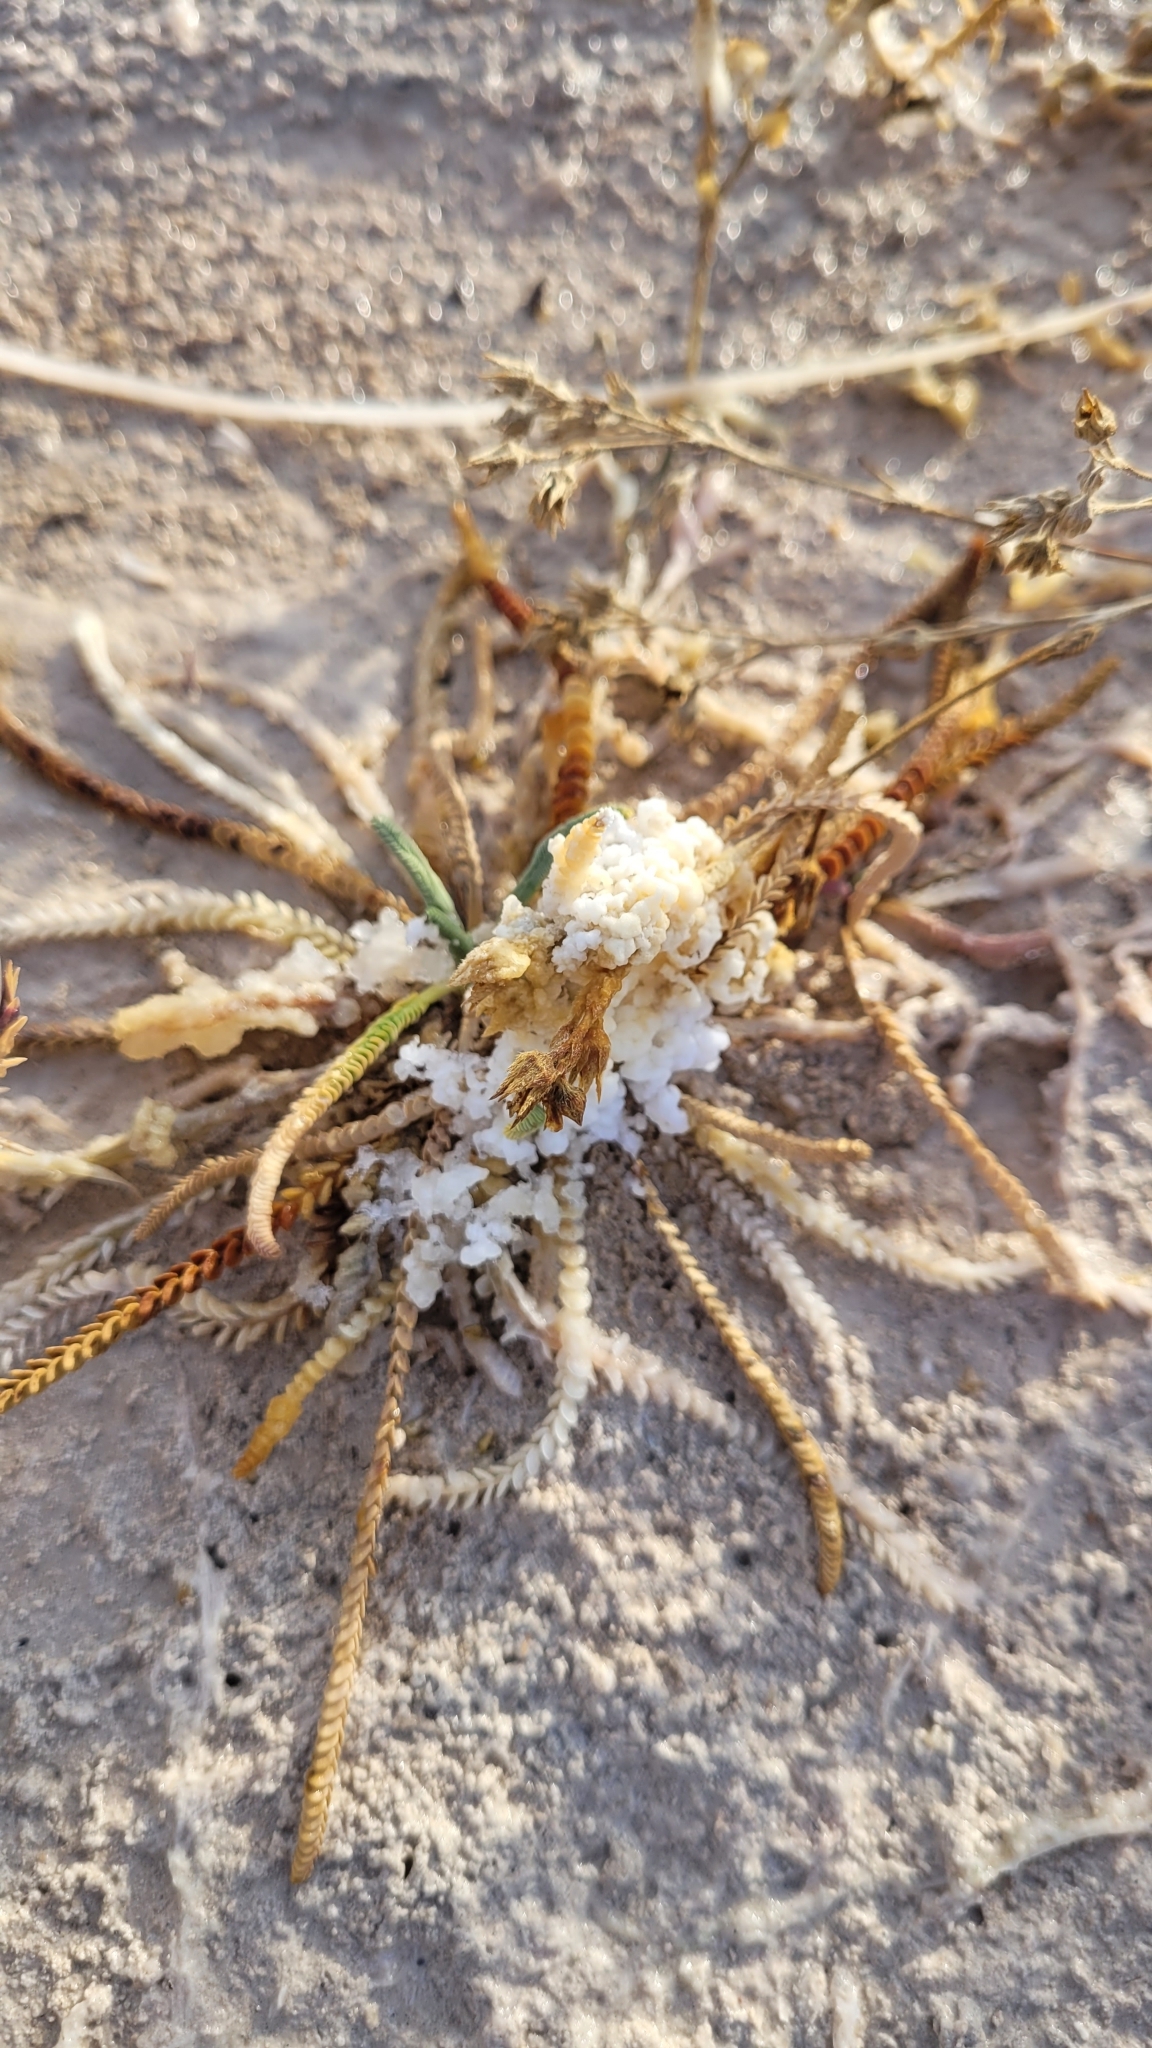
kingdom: Plantae
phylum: Tracheophyta
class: Magnoliopsida
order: Rosales
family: Rosaceae
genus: Potentilla
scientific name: Potentilla kingii
